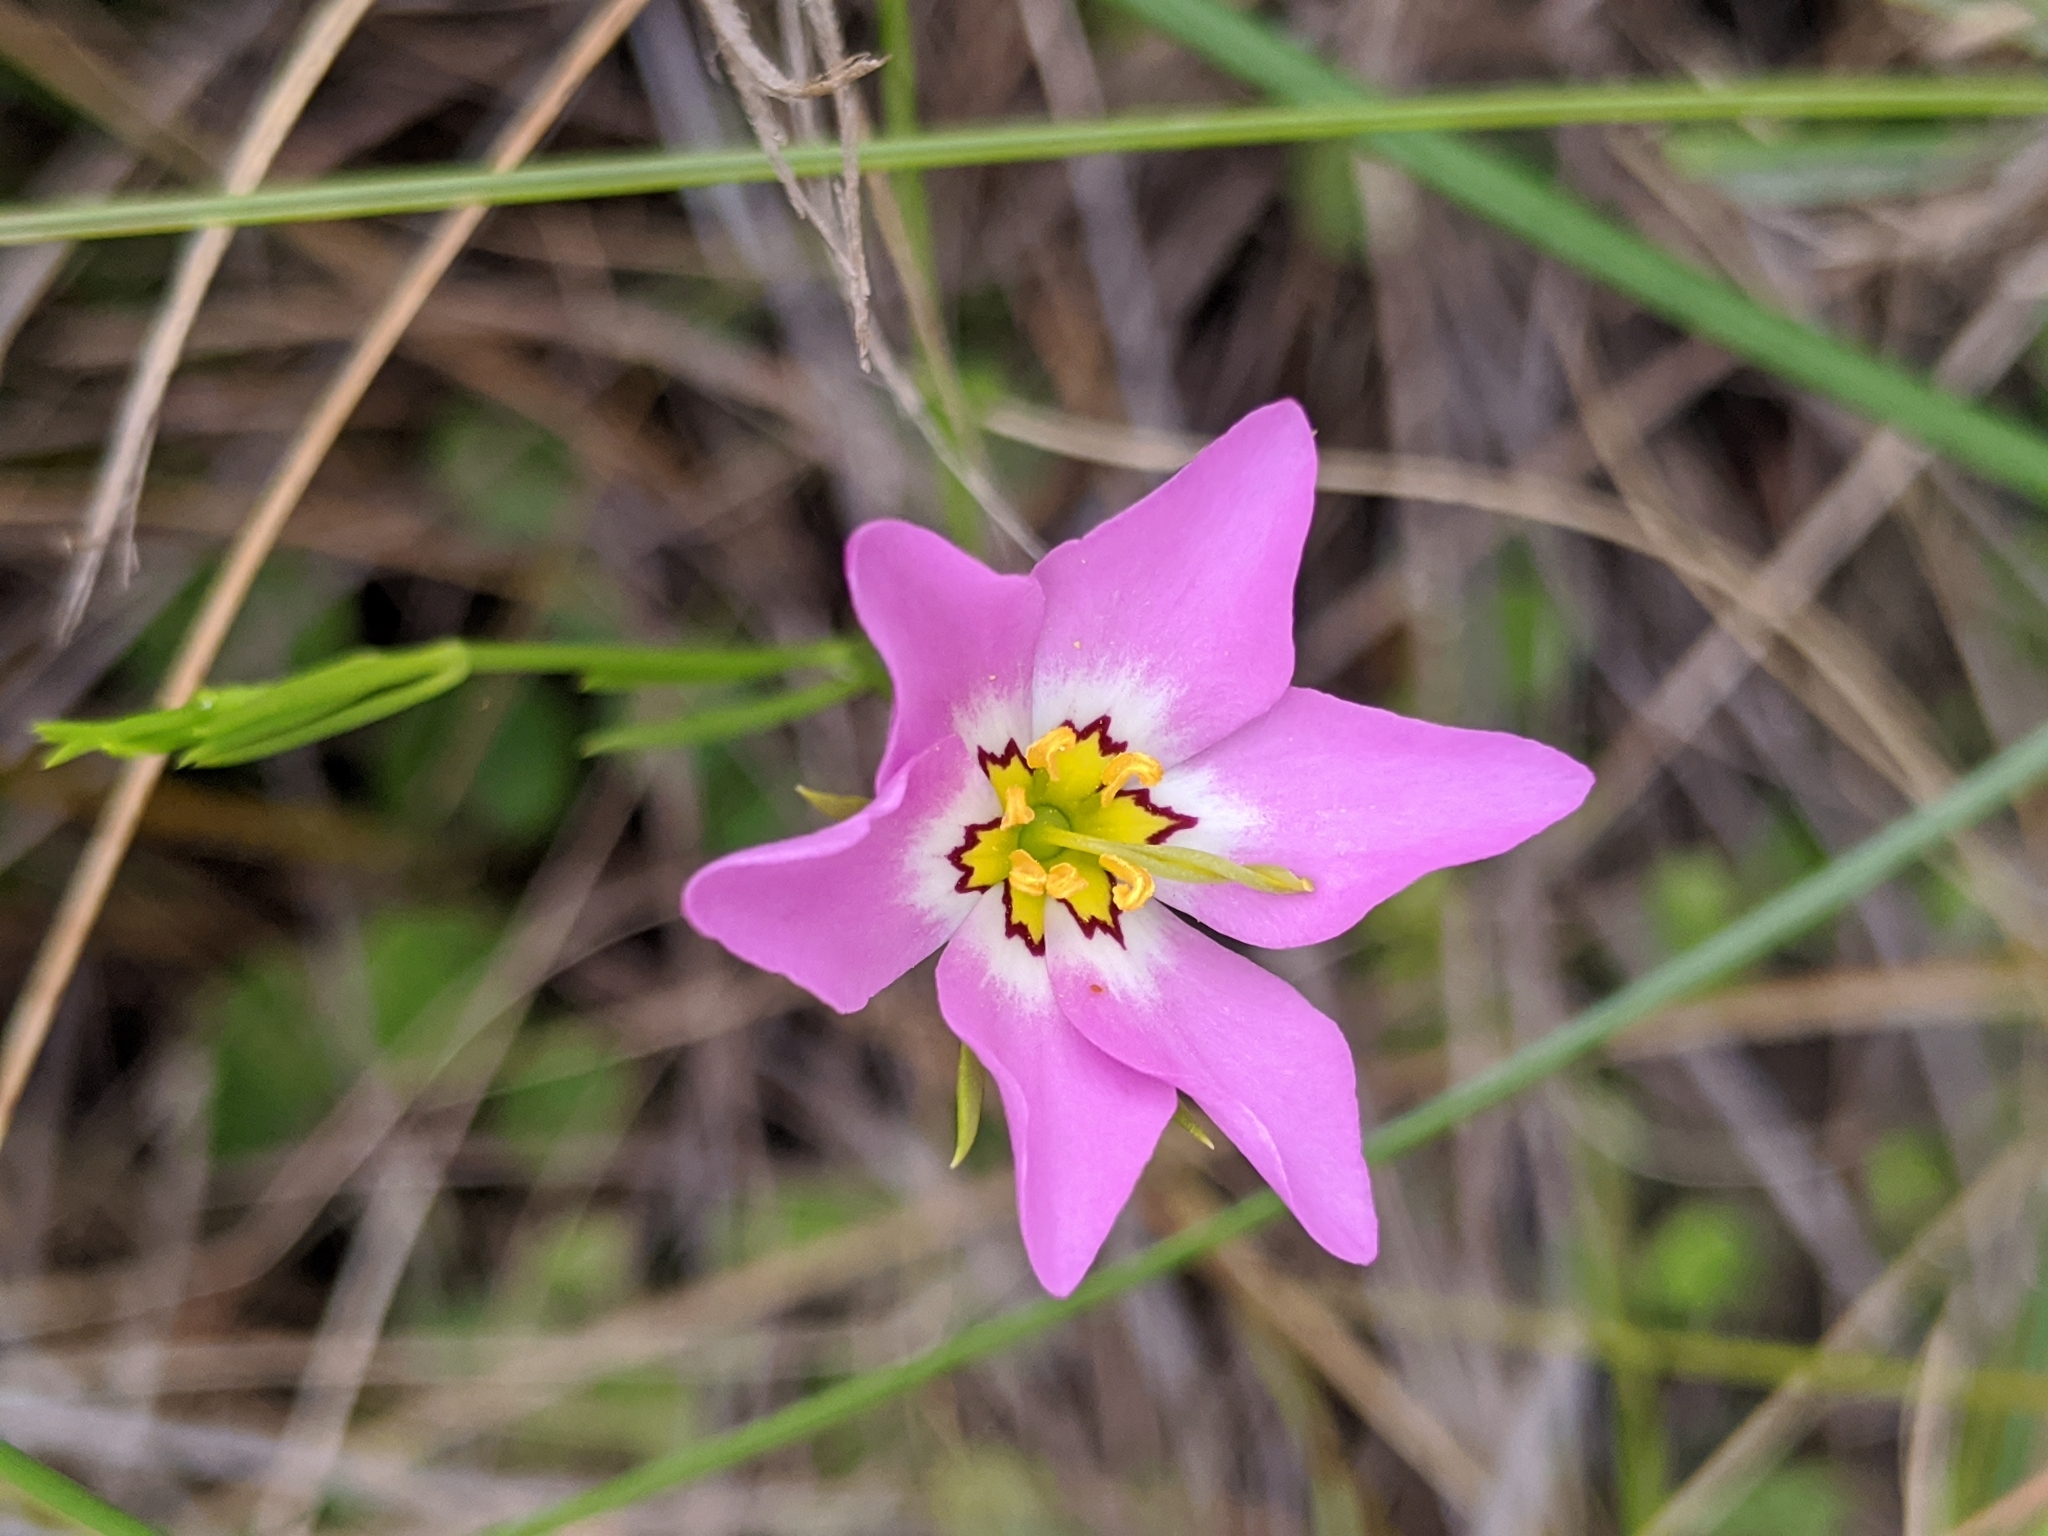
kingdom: Plantae
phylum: Tracheophyta
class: Magnoliopsida
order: Gentianales
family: Gentianaceae
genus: Sabatia
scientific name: Sabatia stellaris
